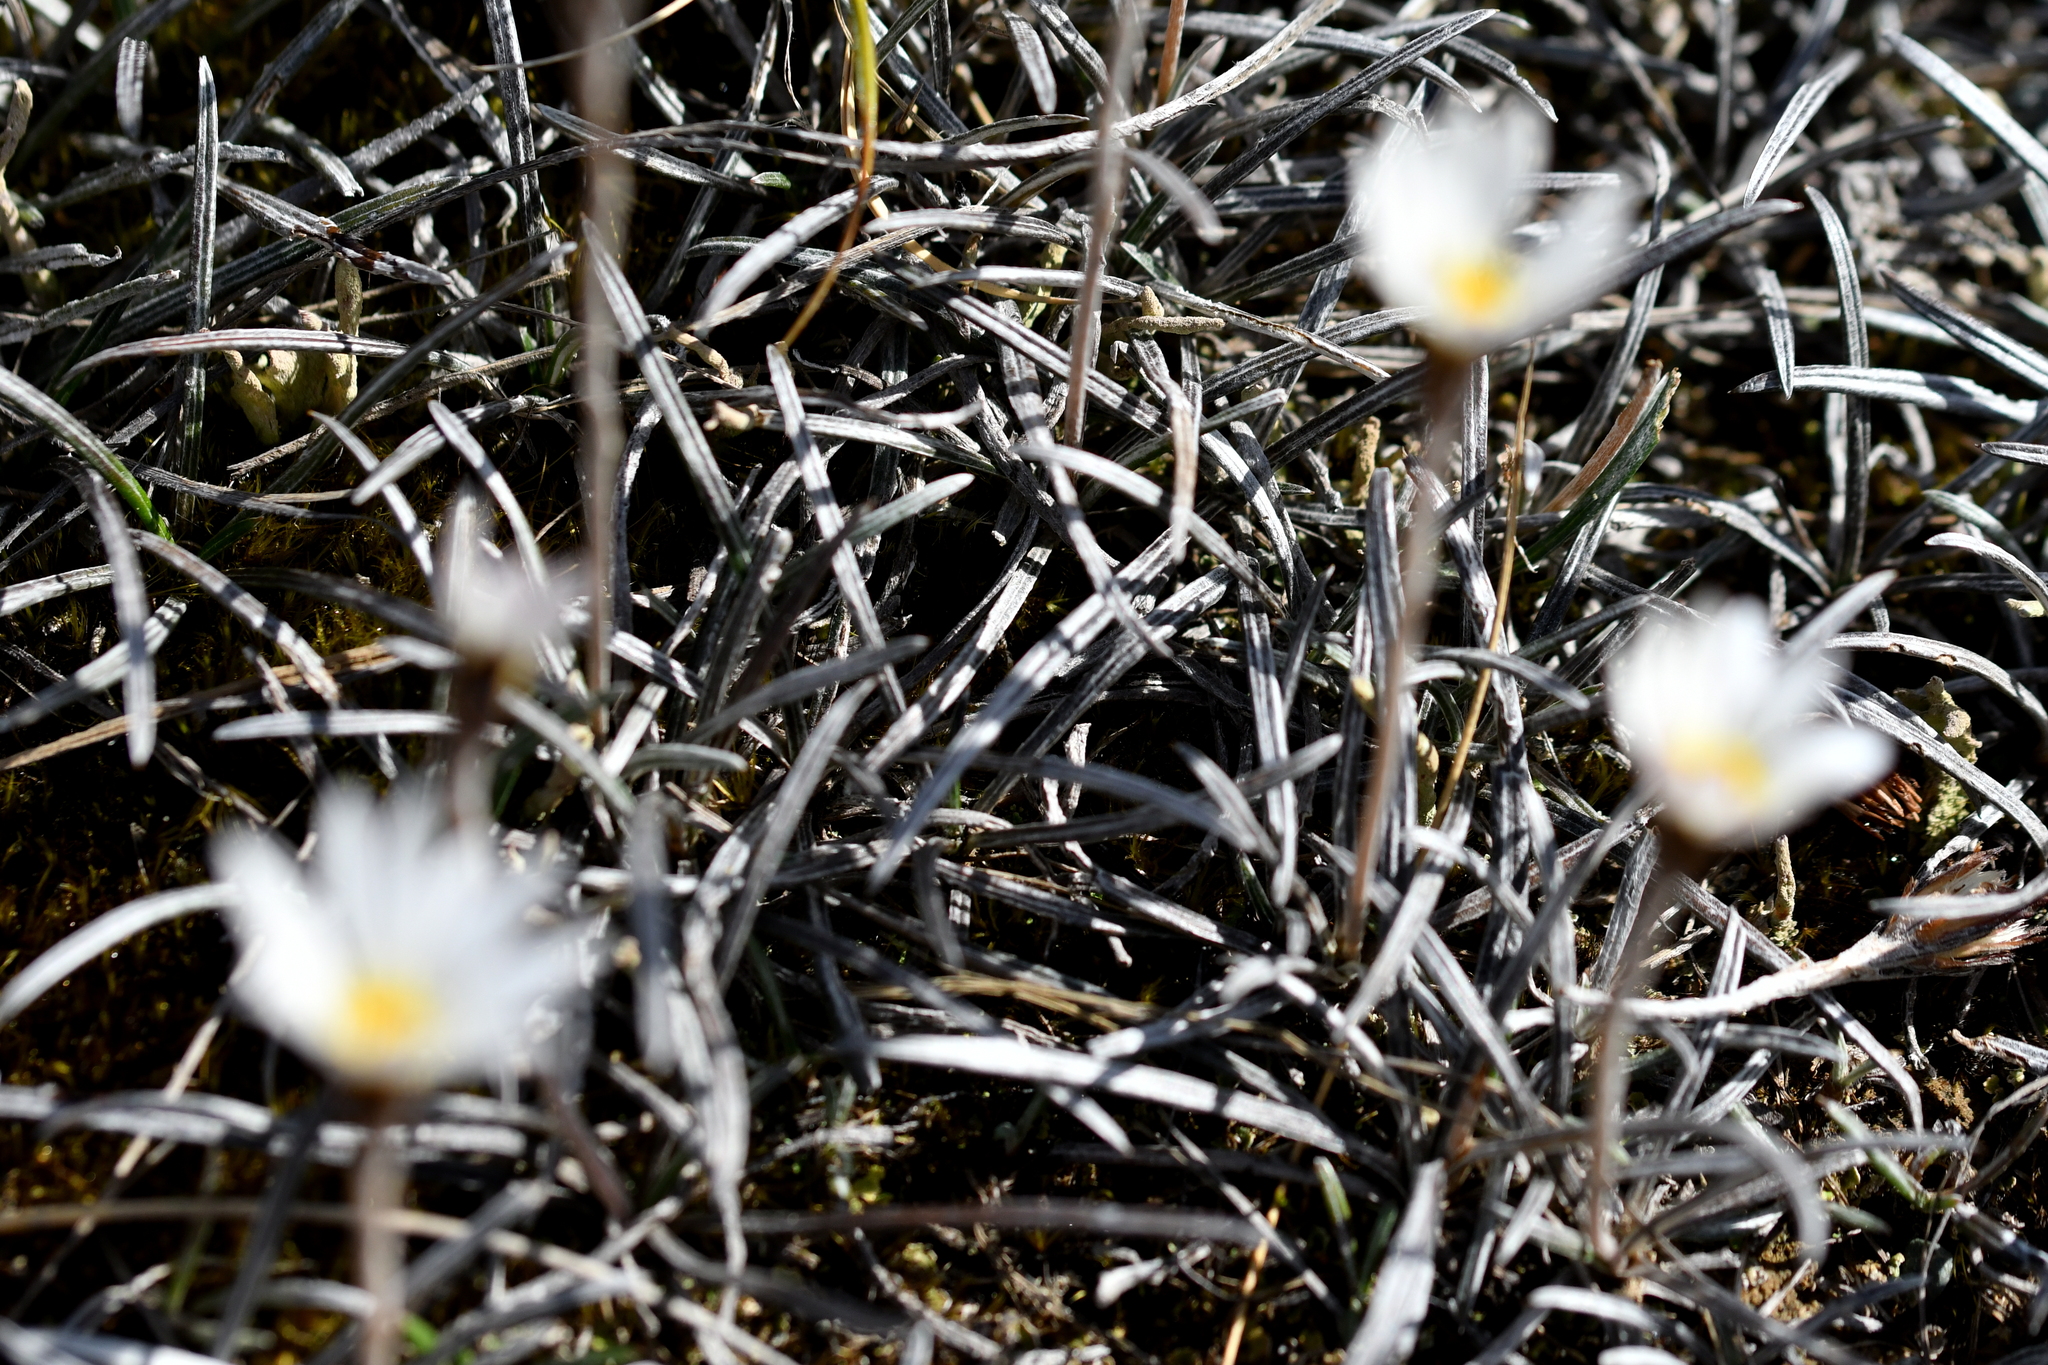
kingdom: Plantae
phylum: Tracheophyta
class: Magnoliopsida
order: Asterales
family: Asteraceae
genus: Celmisia
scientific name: Celmisia gracilenta
